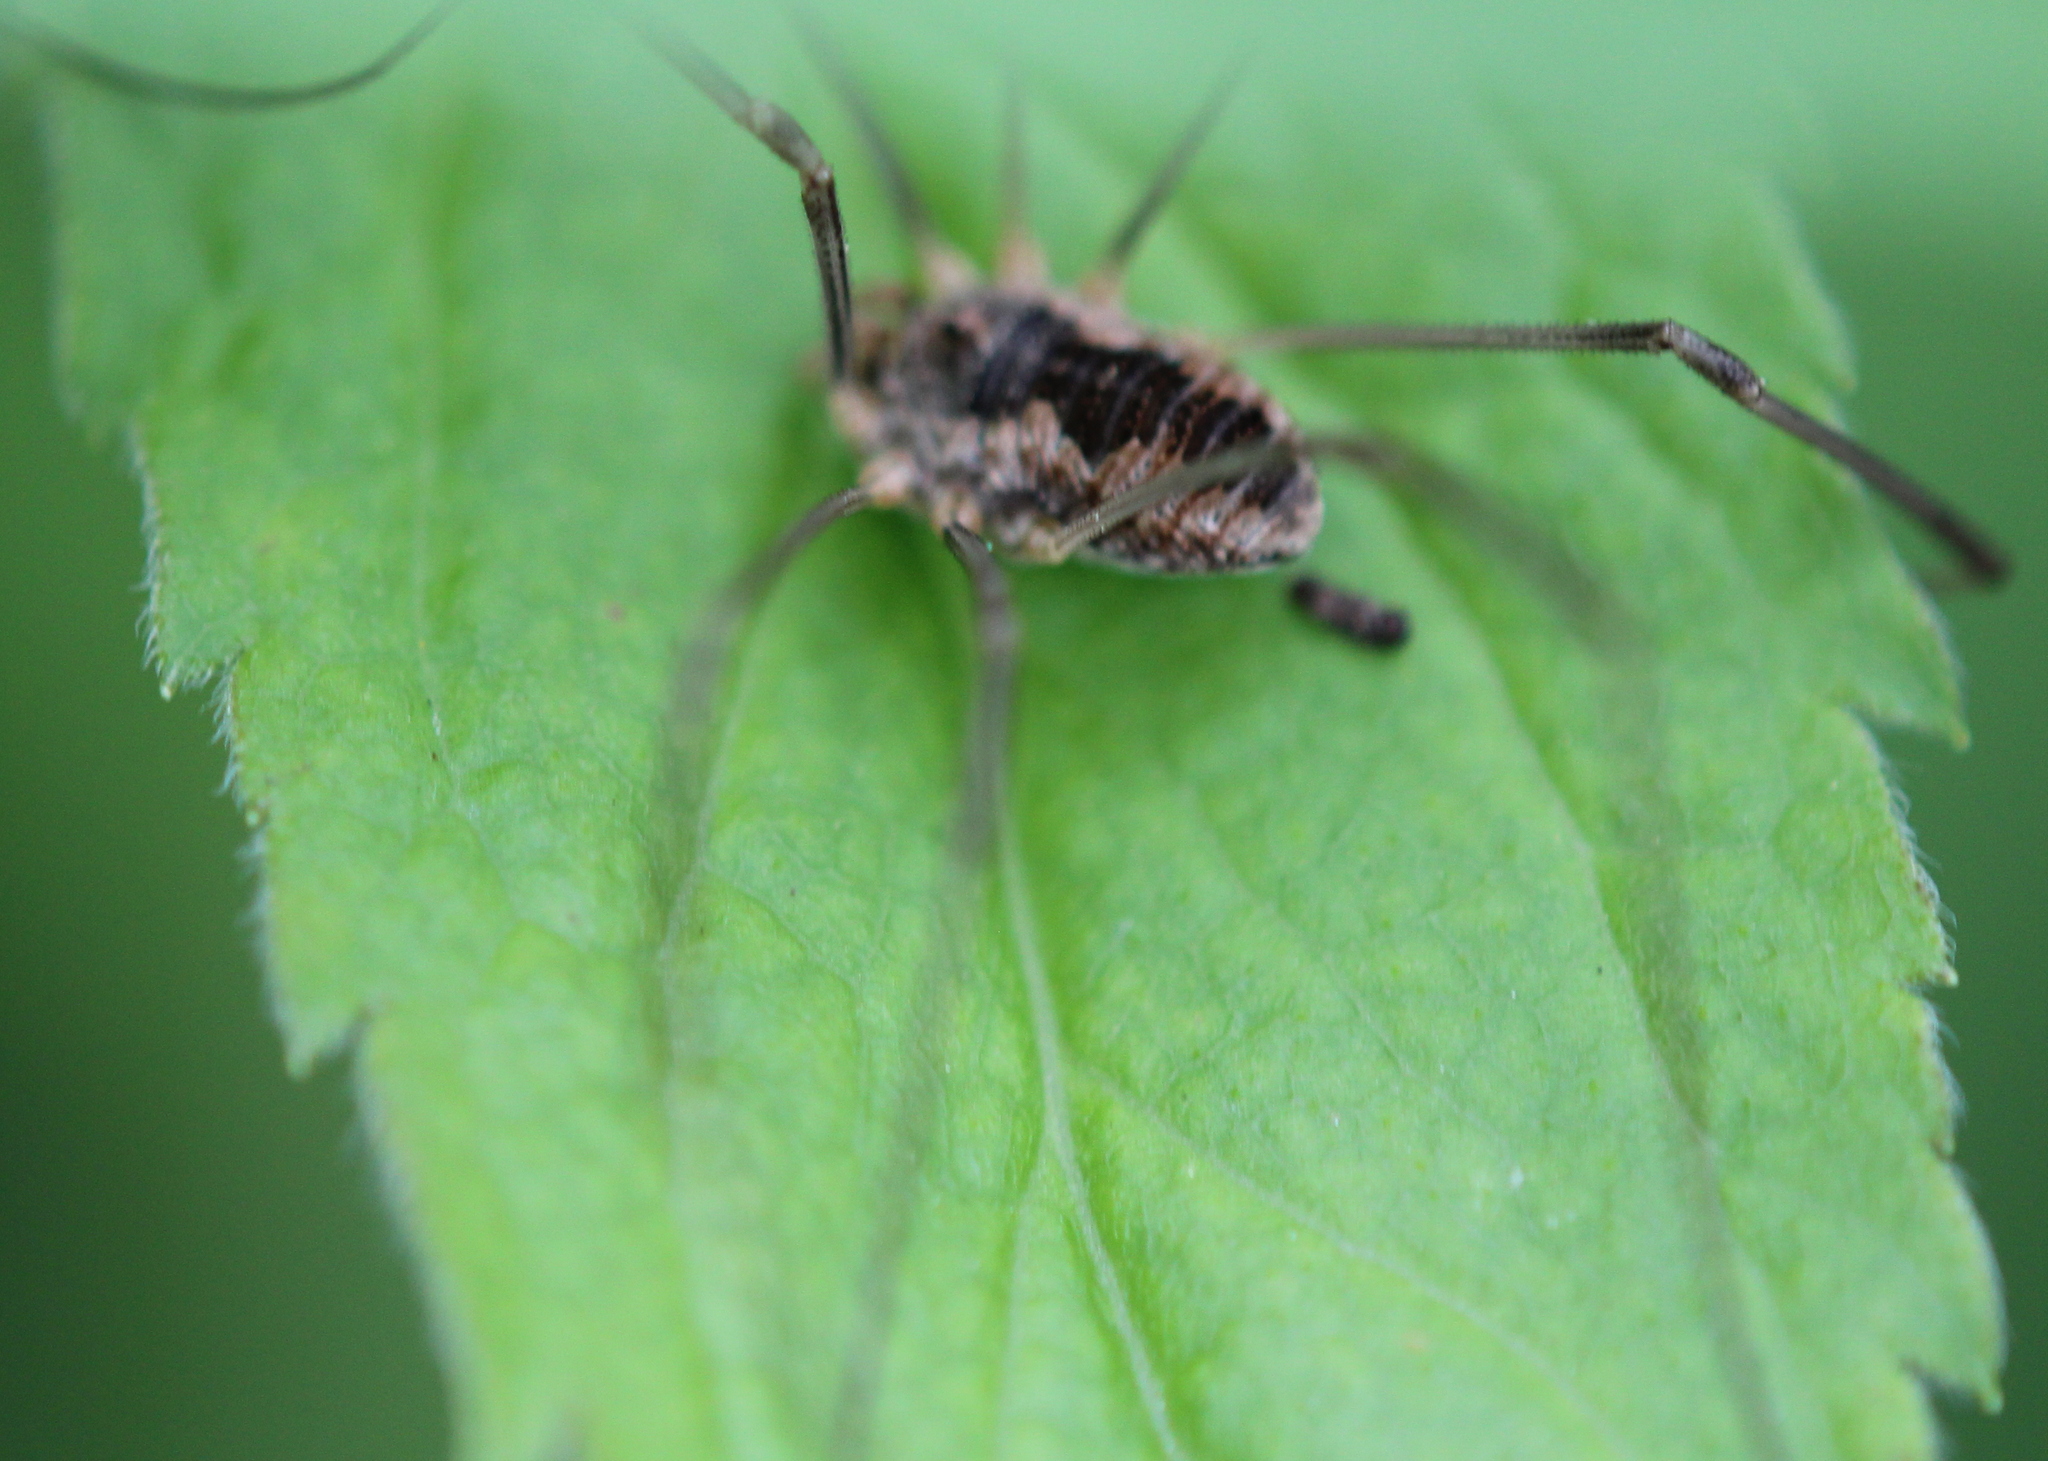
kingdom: Animalia
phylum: Arthropoda
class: Arachnida
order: Opiliones
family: Phalangiidae
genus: Phalangium
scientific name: Phalangium opilio
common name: Daddy longleg
